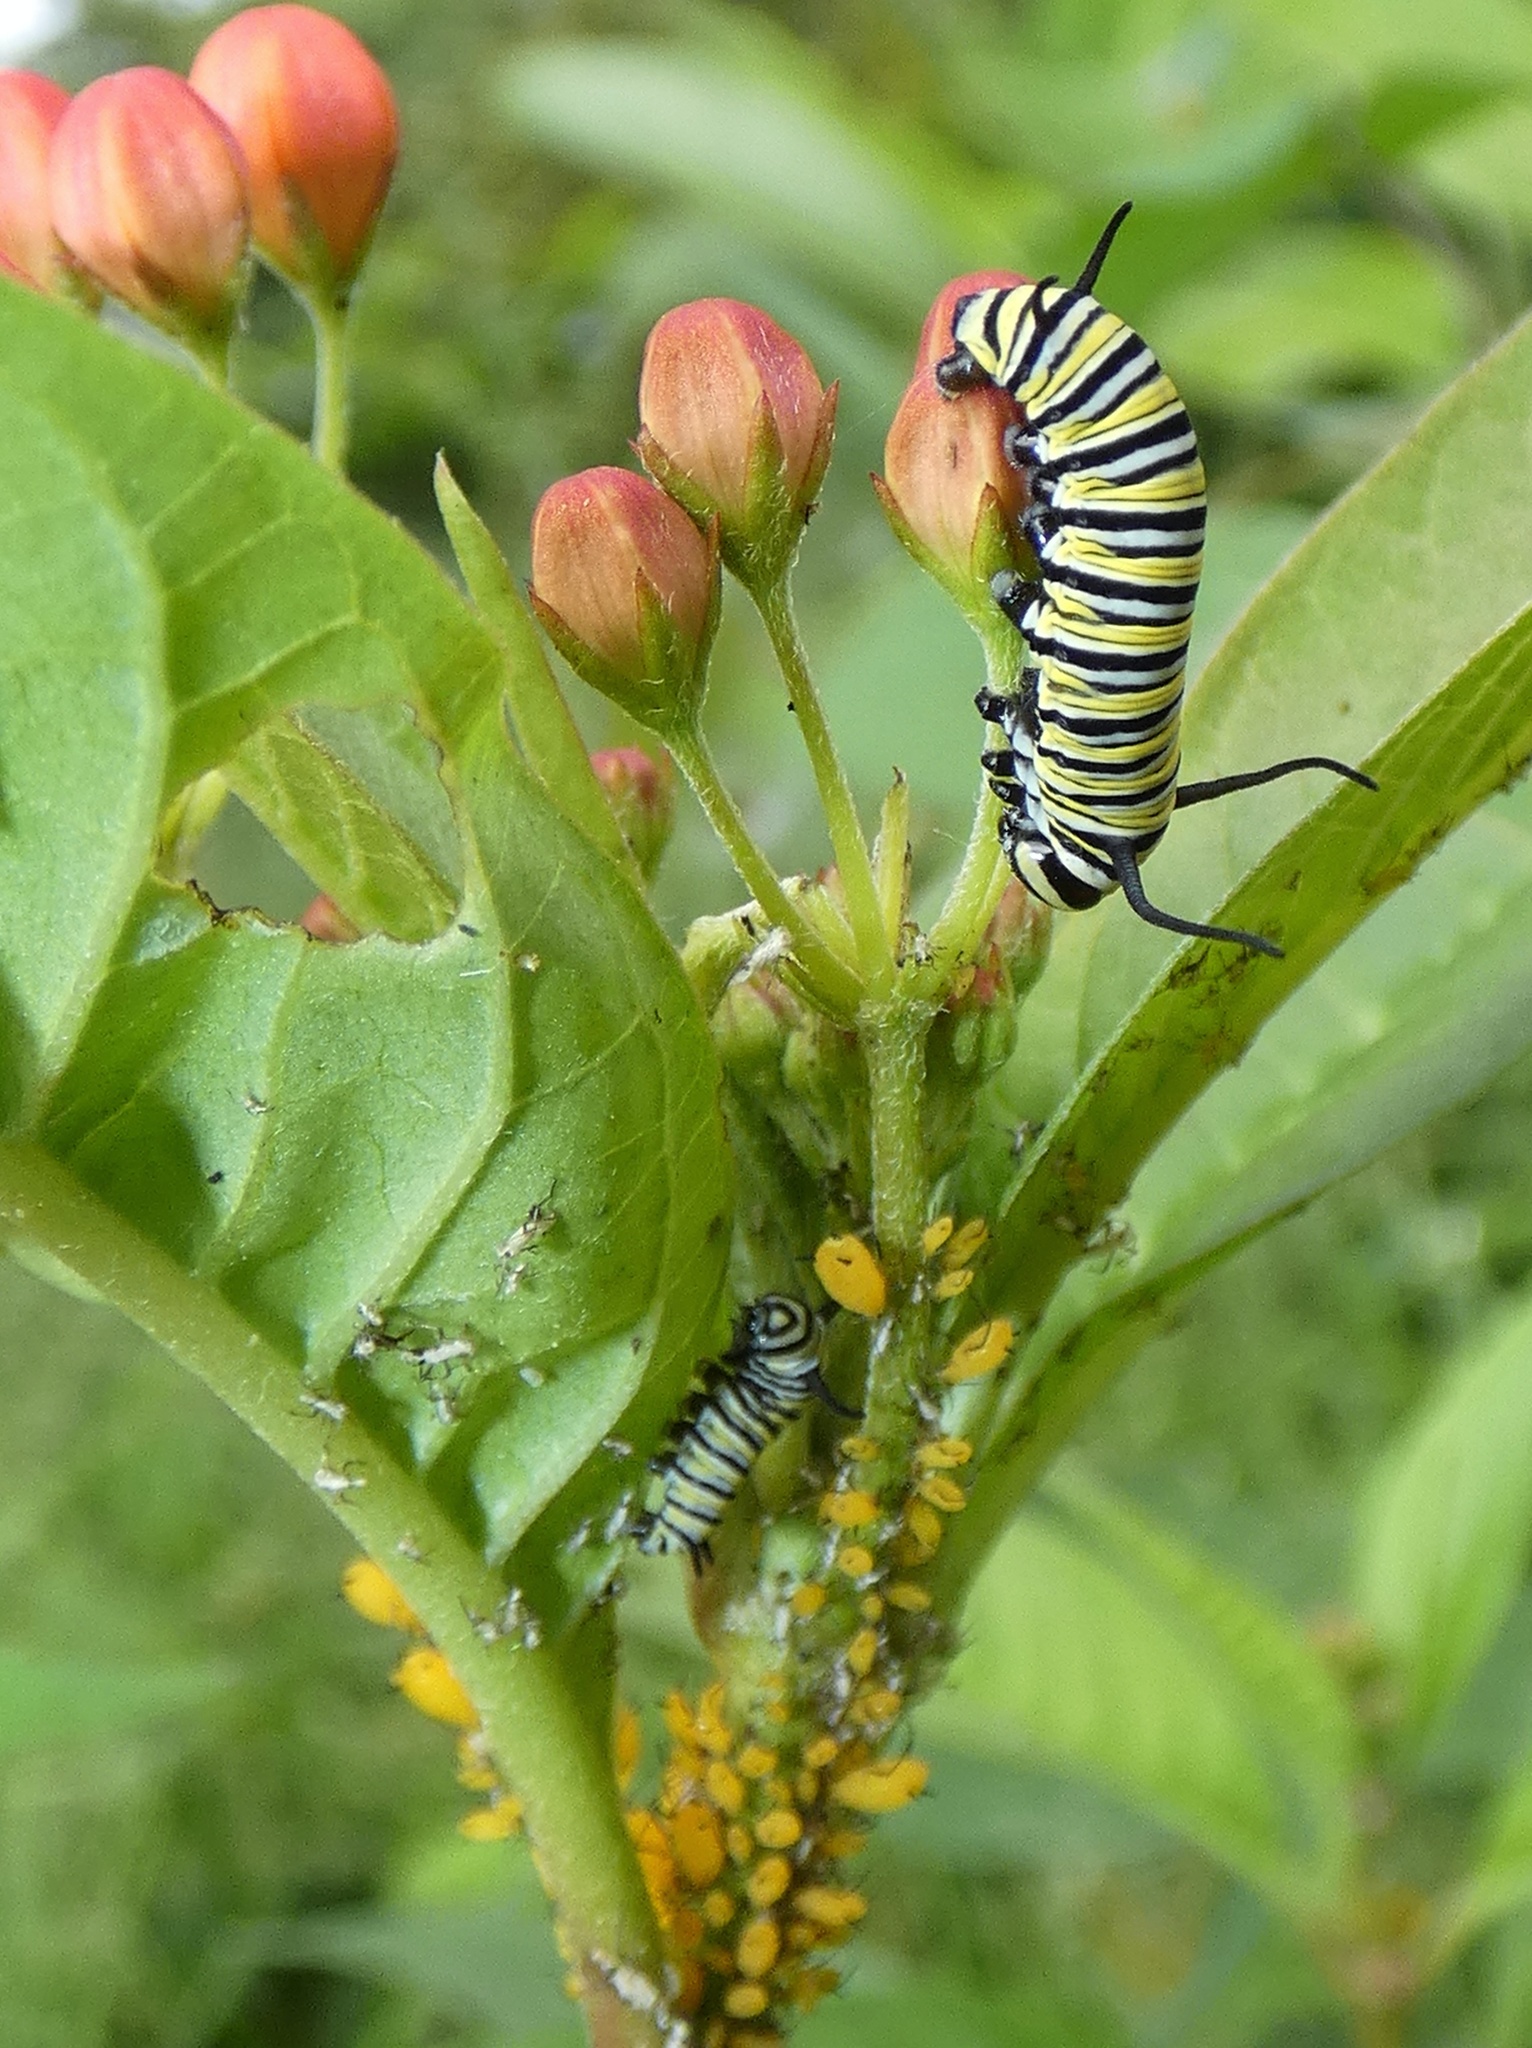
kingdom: Animalia
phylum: Arthropoda
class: Insecta
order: Lepidoptera
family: Nymphalidae
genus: Danaus
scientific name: Danaus plexippus
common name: Monarch
